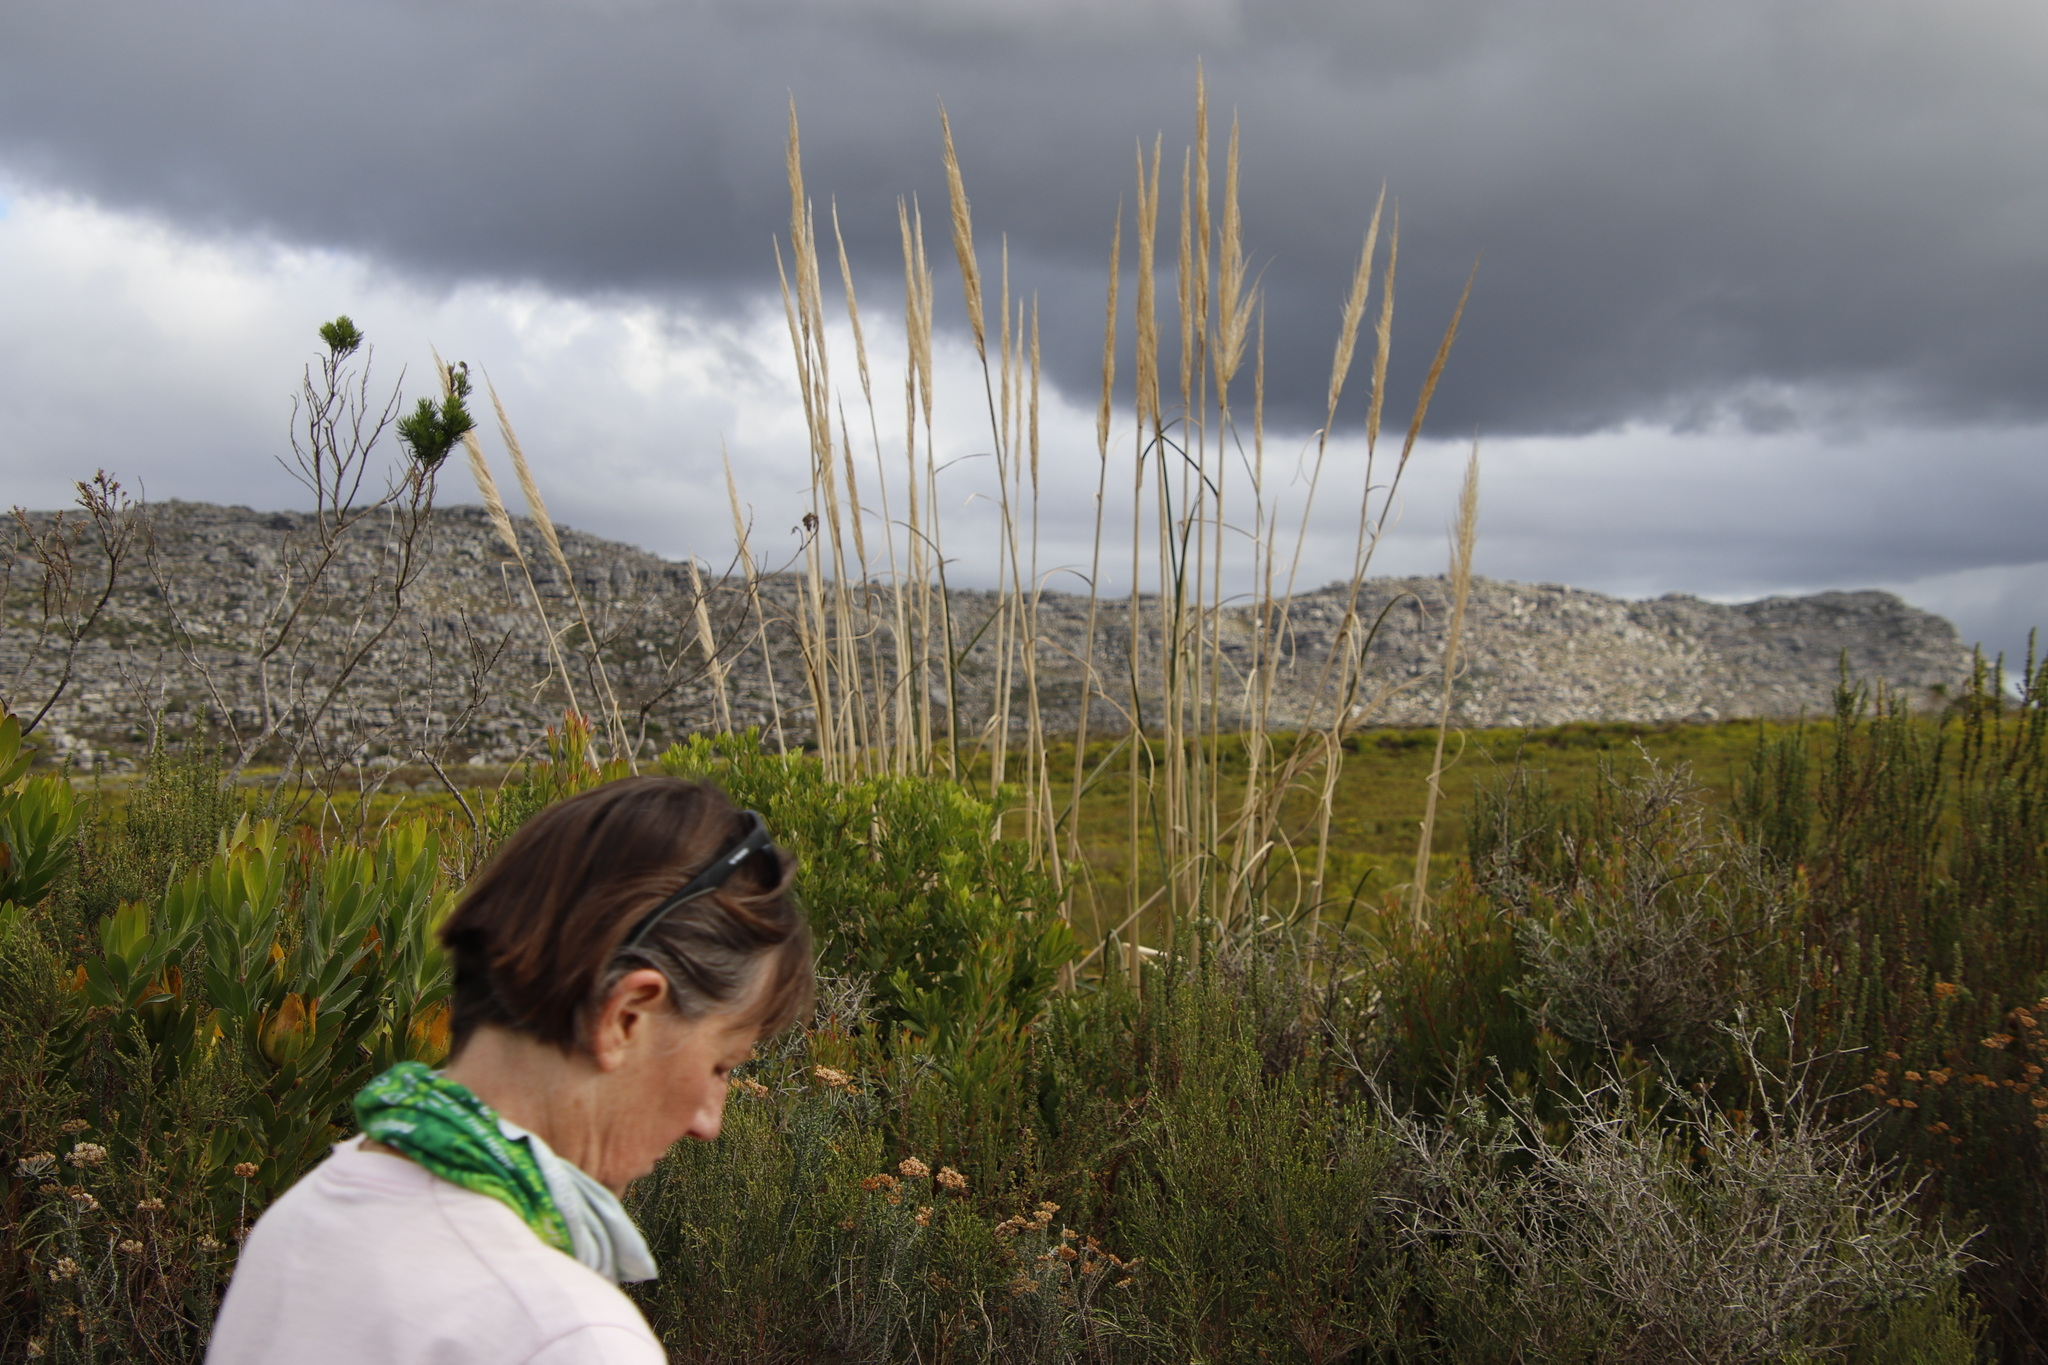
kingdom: Plantae
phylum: Tracheophyta
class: Liliopsida
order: Poales
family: Poaceae
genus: Cortaderia
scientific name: Cortaderia selloana
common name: Uruguayan pampas grass
